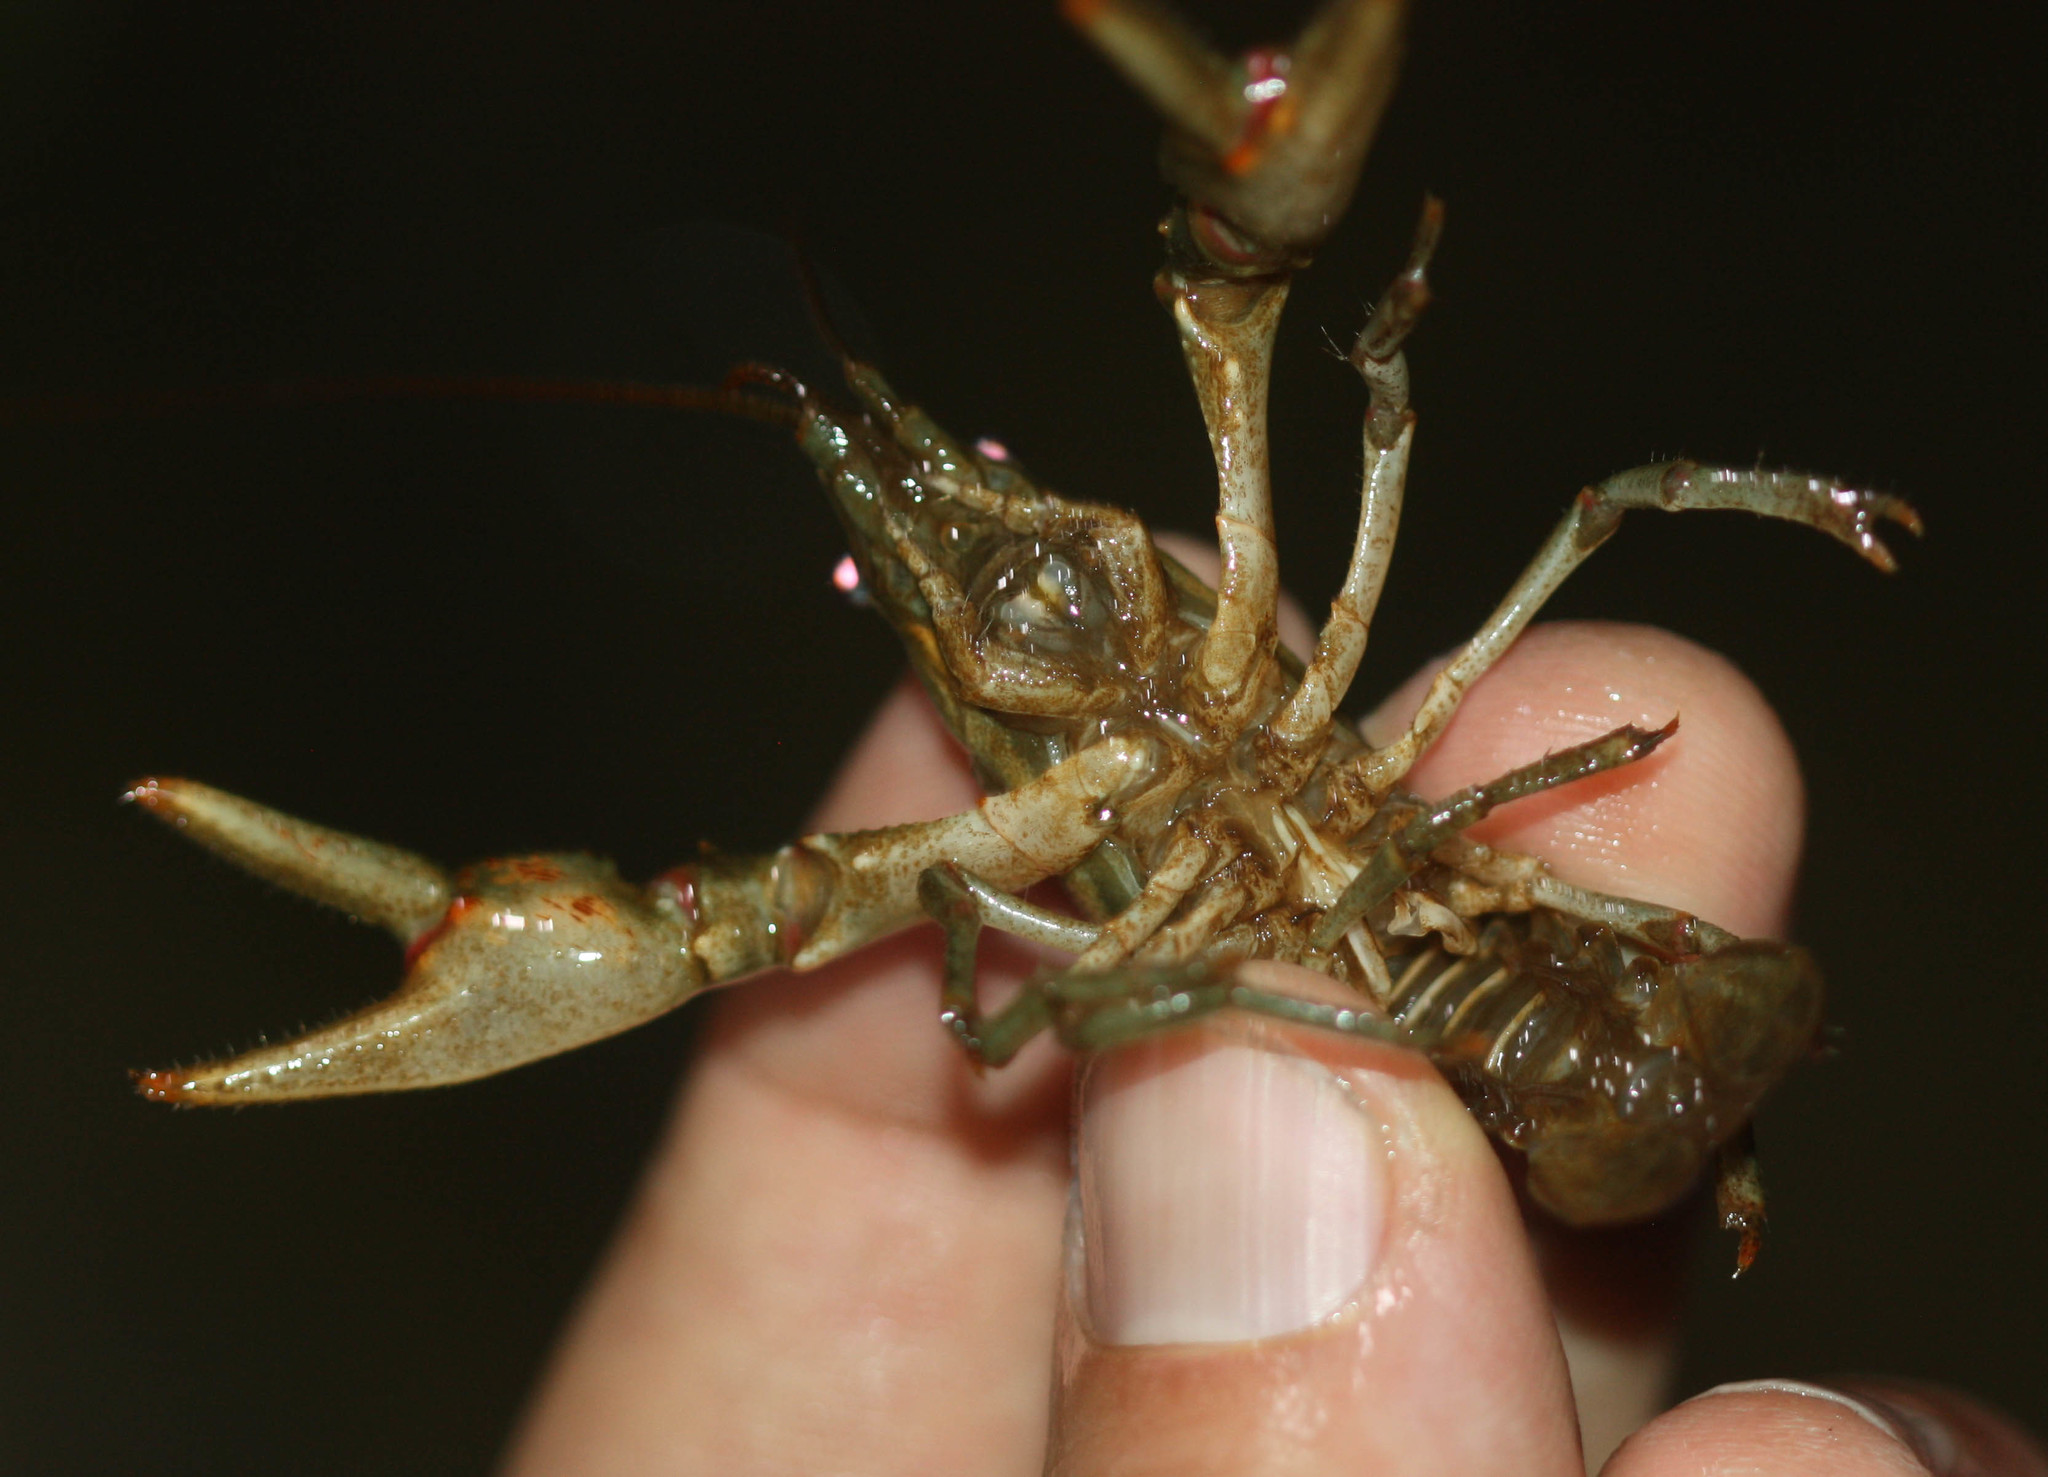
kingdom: Animalia
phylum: Arthropoda
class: Malacostraca
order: Decapoda
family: Cambaridae
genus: Faxonius
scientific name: Faxonius propinquus
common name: Northern clearwater crayfish
